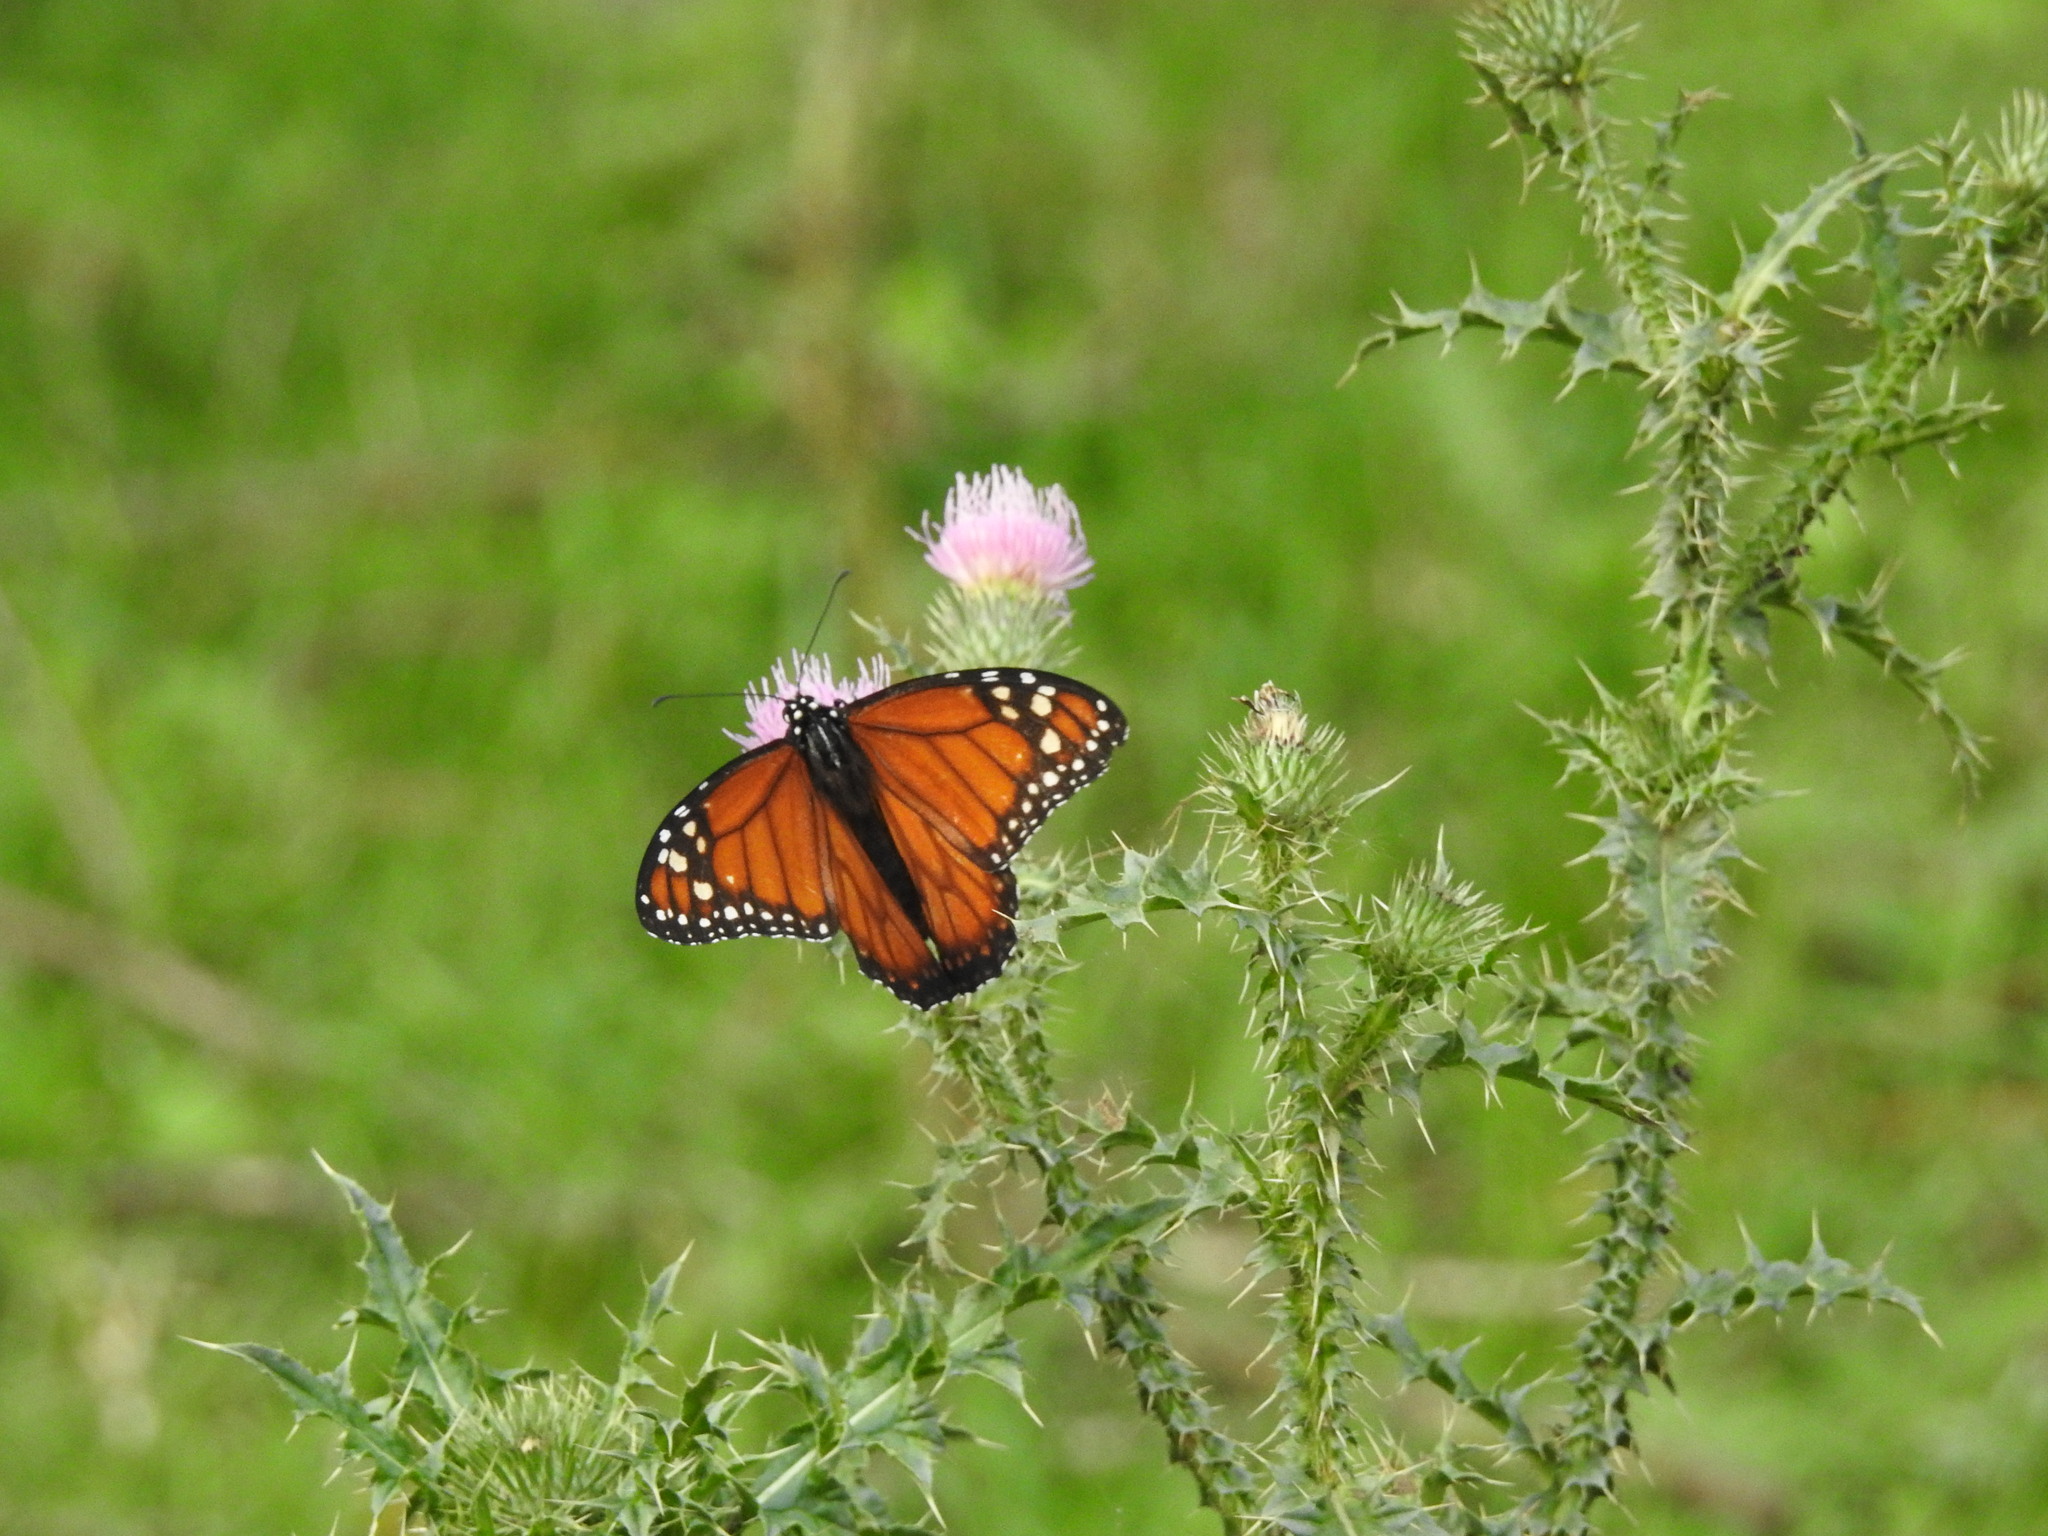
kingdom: Animalia
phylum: Arthropoda
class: Insecta
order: Lepidoptera
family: Nymphalidae
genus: Danaus
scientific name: Danaus erippus
